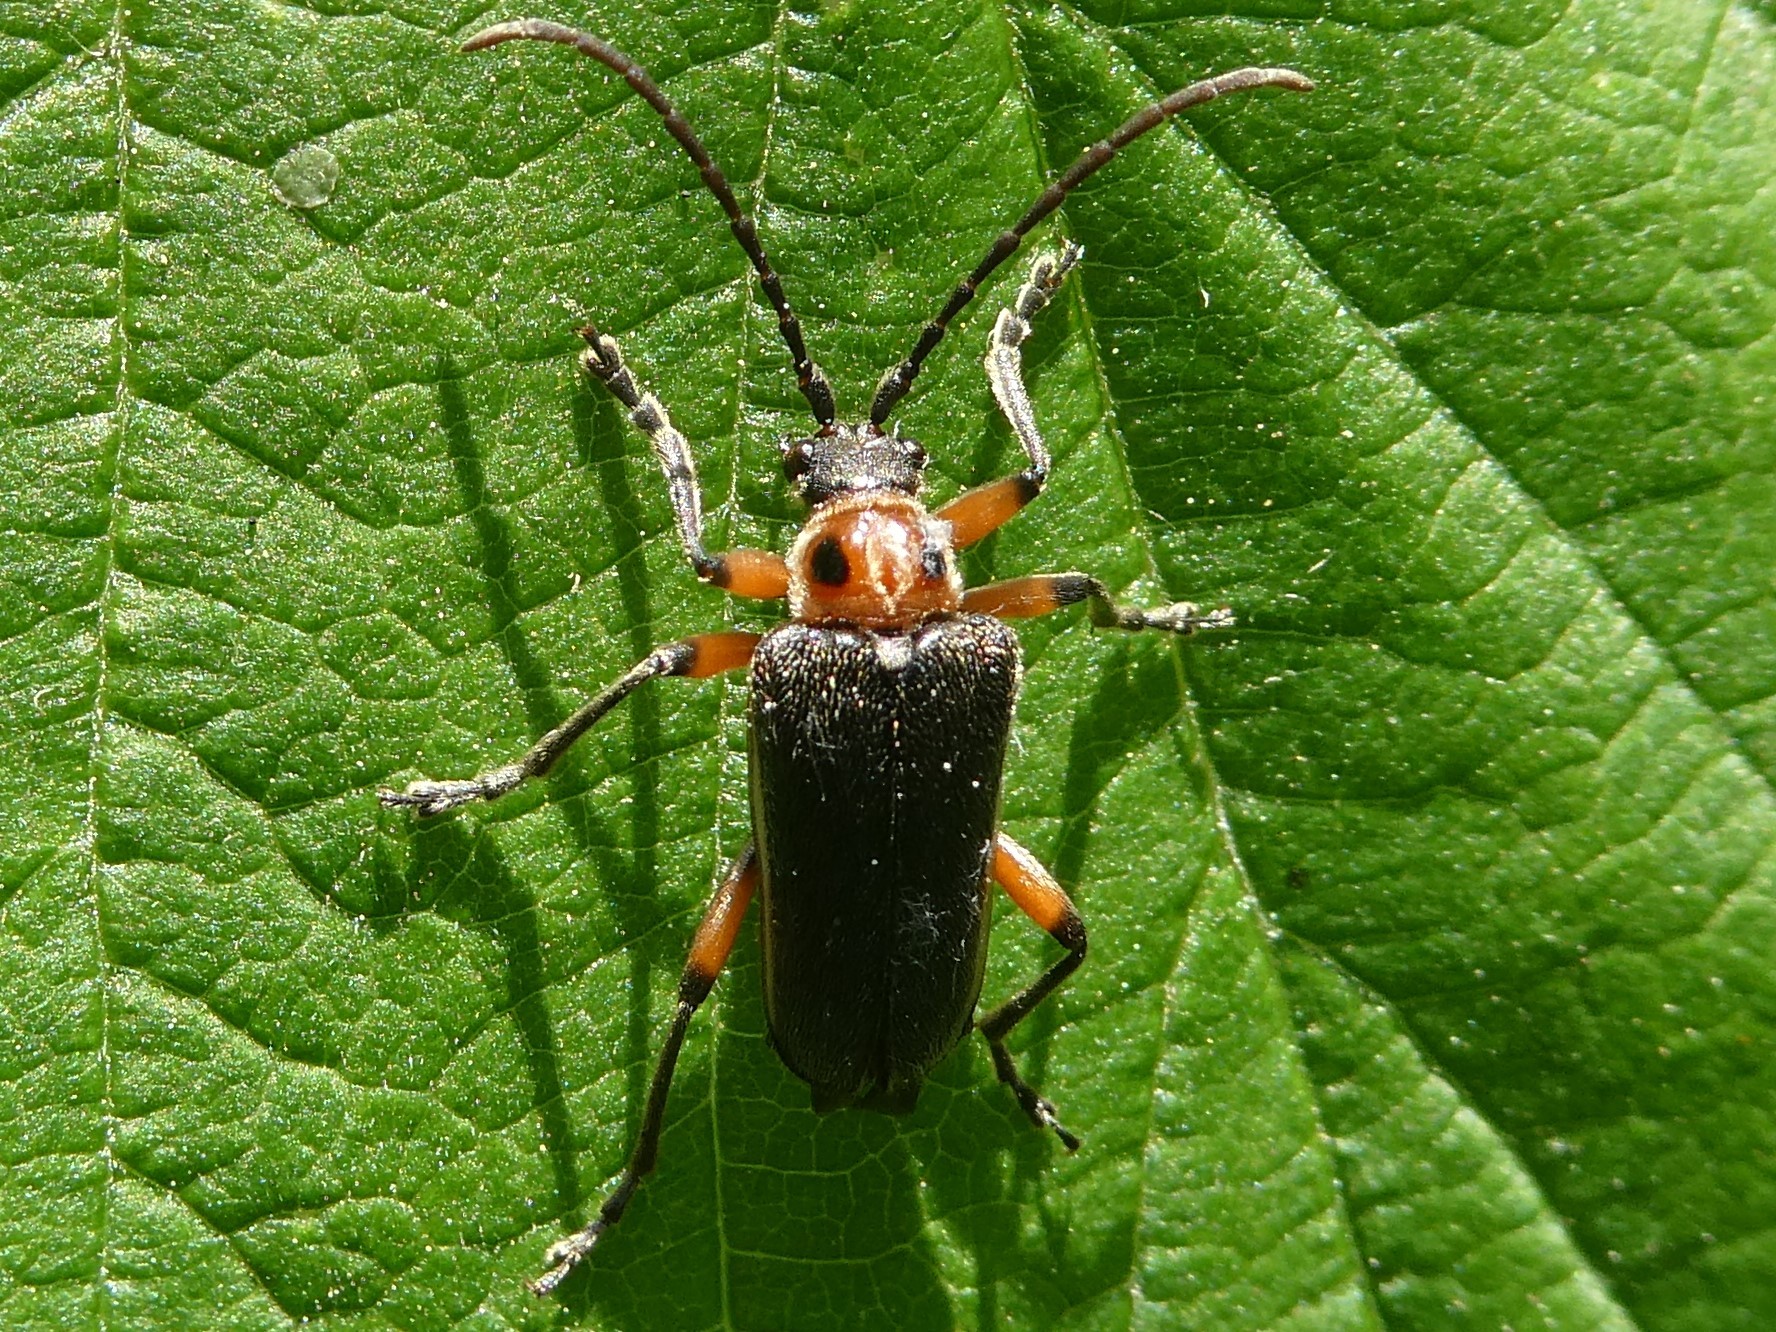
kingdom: Animalia
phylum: Arthropoda
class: Insecta
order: Coleoptera
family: Cerambycidae
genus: Brachysomida
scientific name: Brachysomida bivittata
